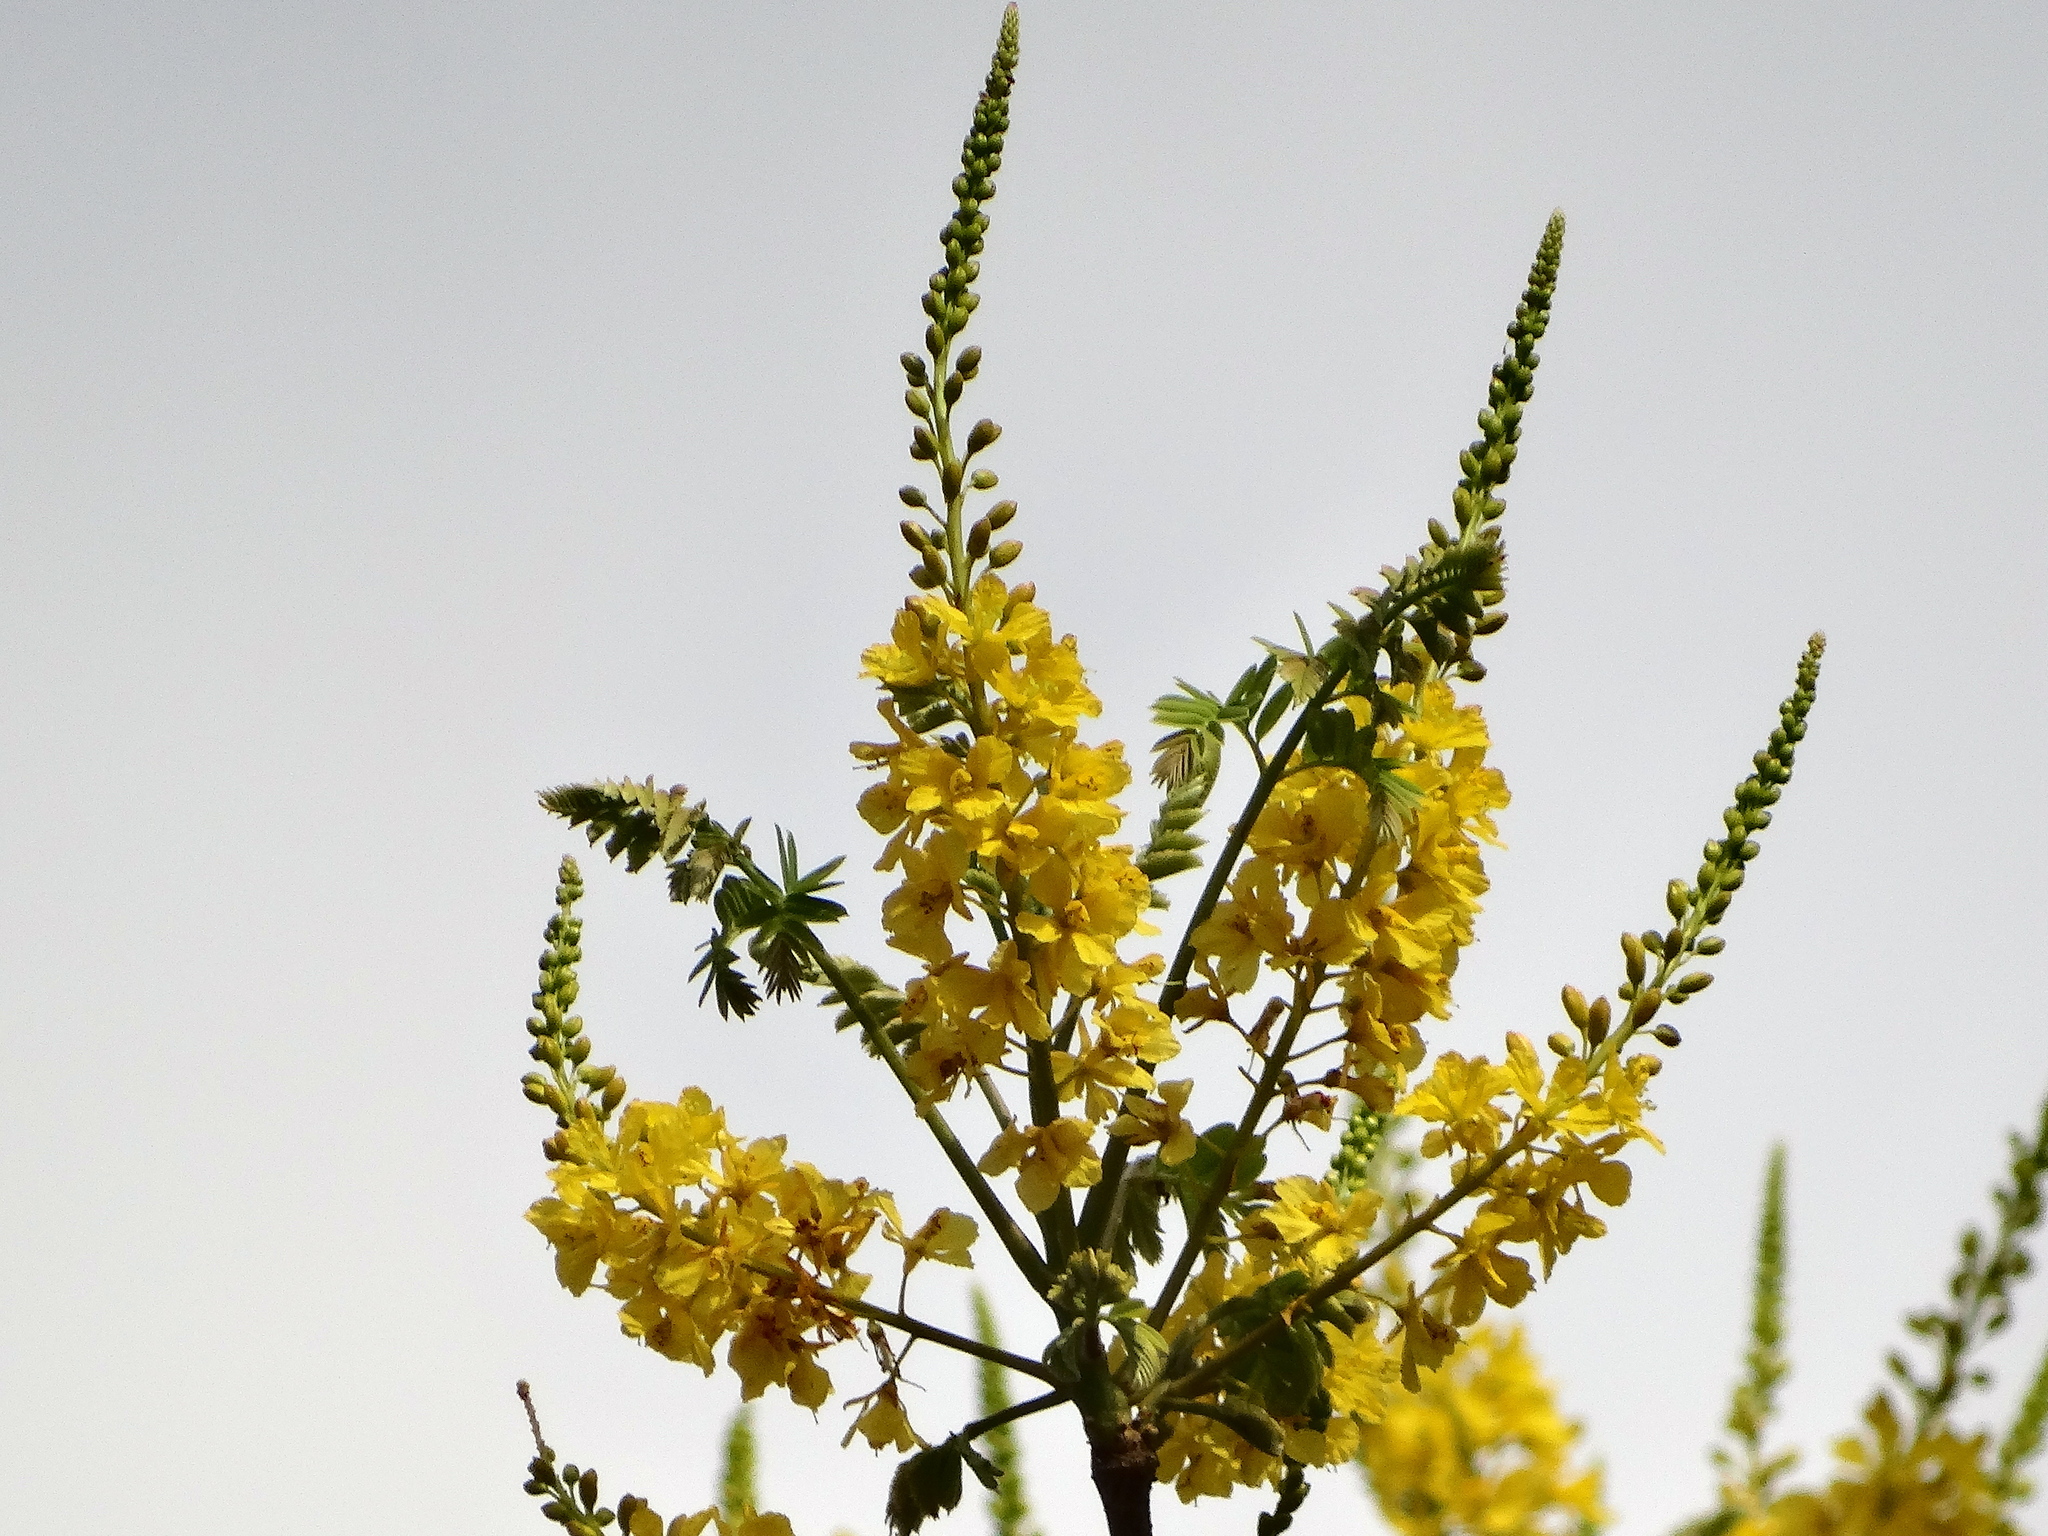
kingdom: Plantae
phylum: Tracheophyta
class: Magnoliopsida
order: Fabales
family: Fabaceae
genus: Conzattia
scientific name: Conzattia sericea
